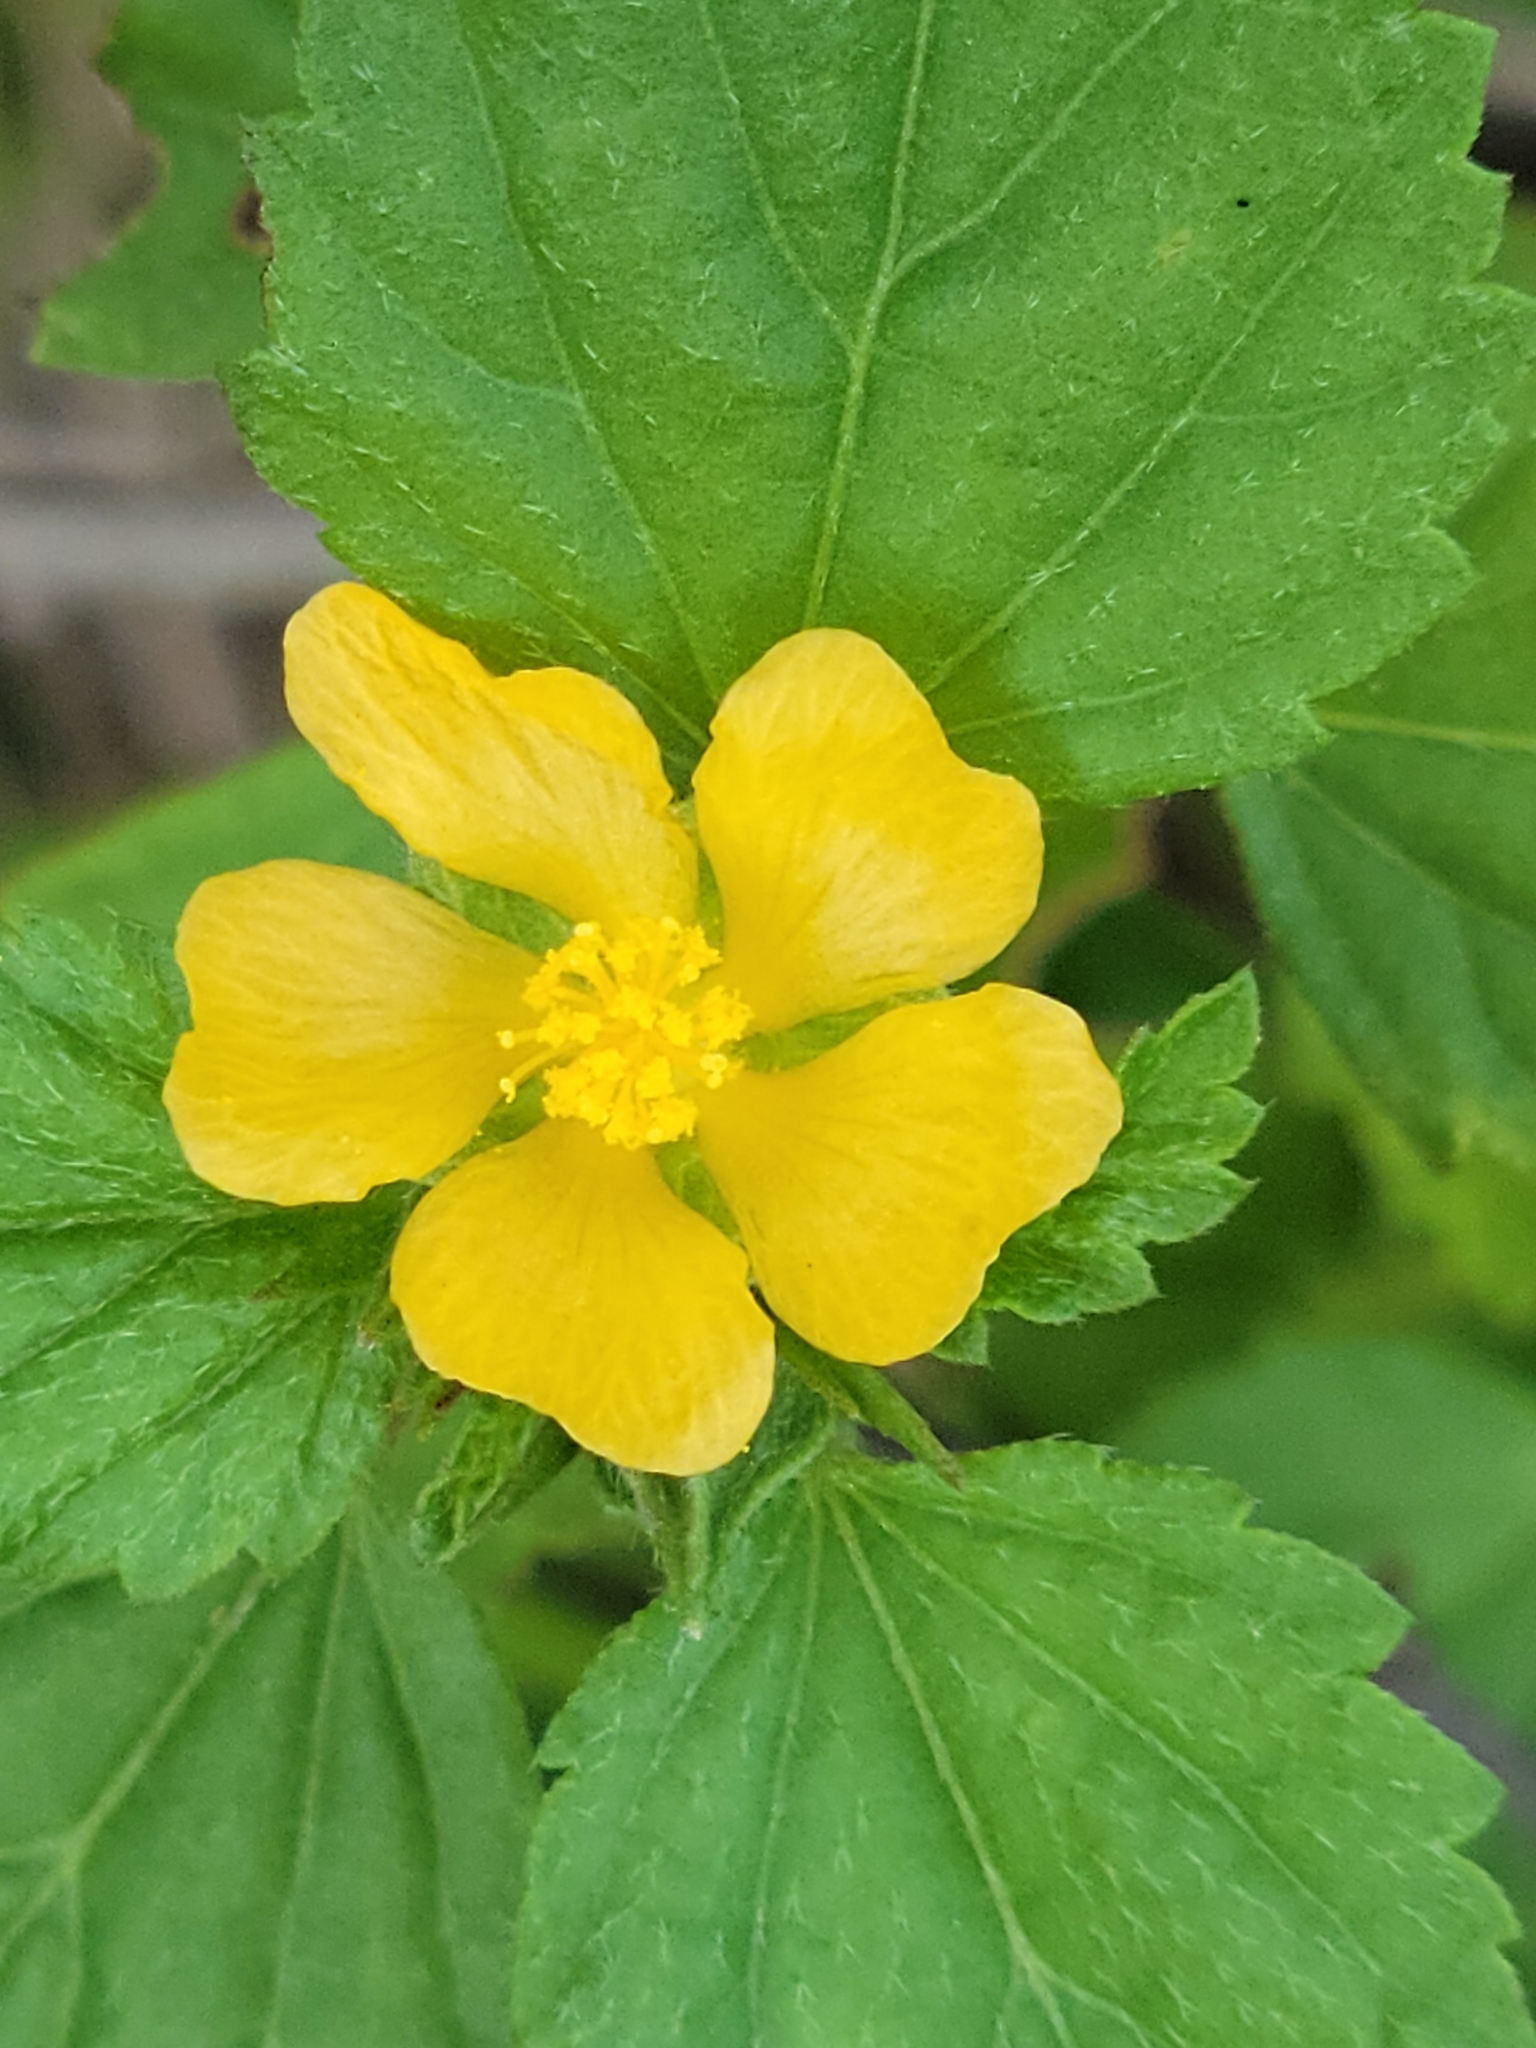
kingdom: Plantae
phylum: Tracheophyta
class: Magnoliopsida
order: Malvales
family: Malvaceae
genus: Malvastrum
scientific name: Malvastrum corchorifolium
